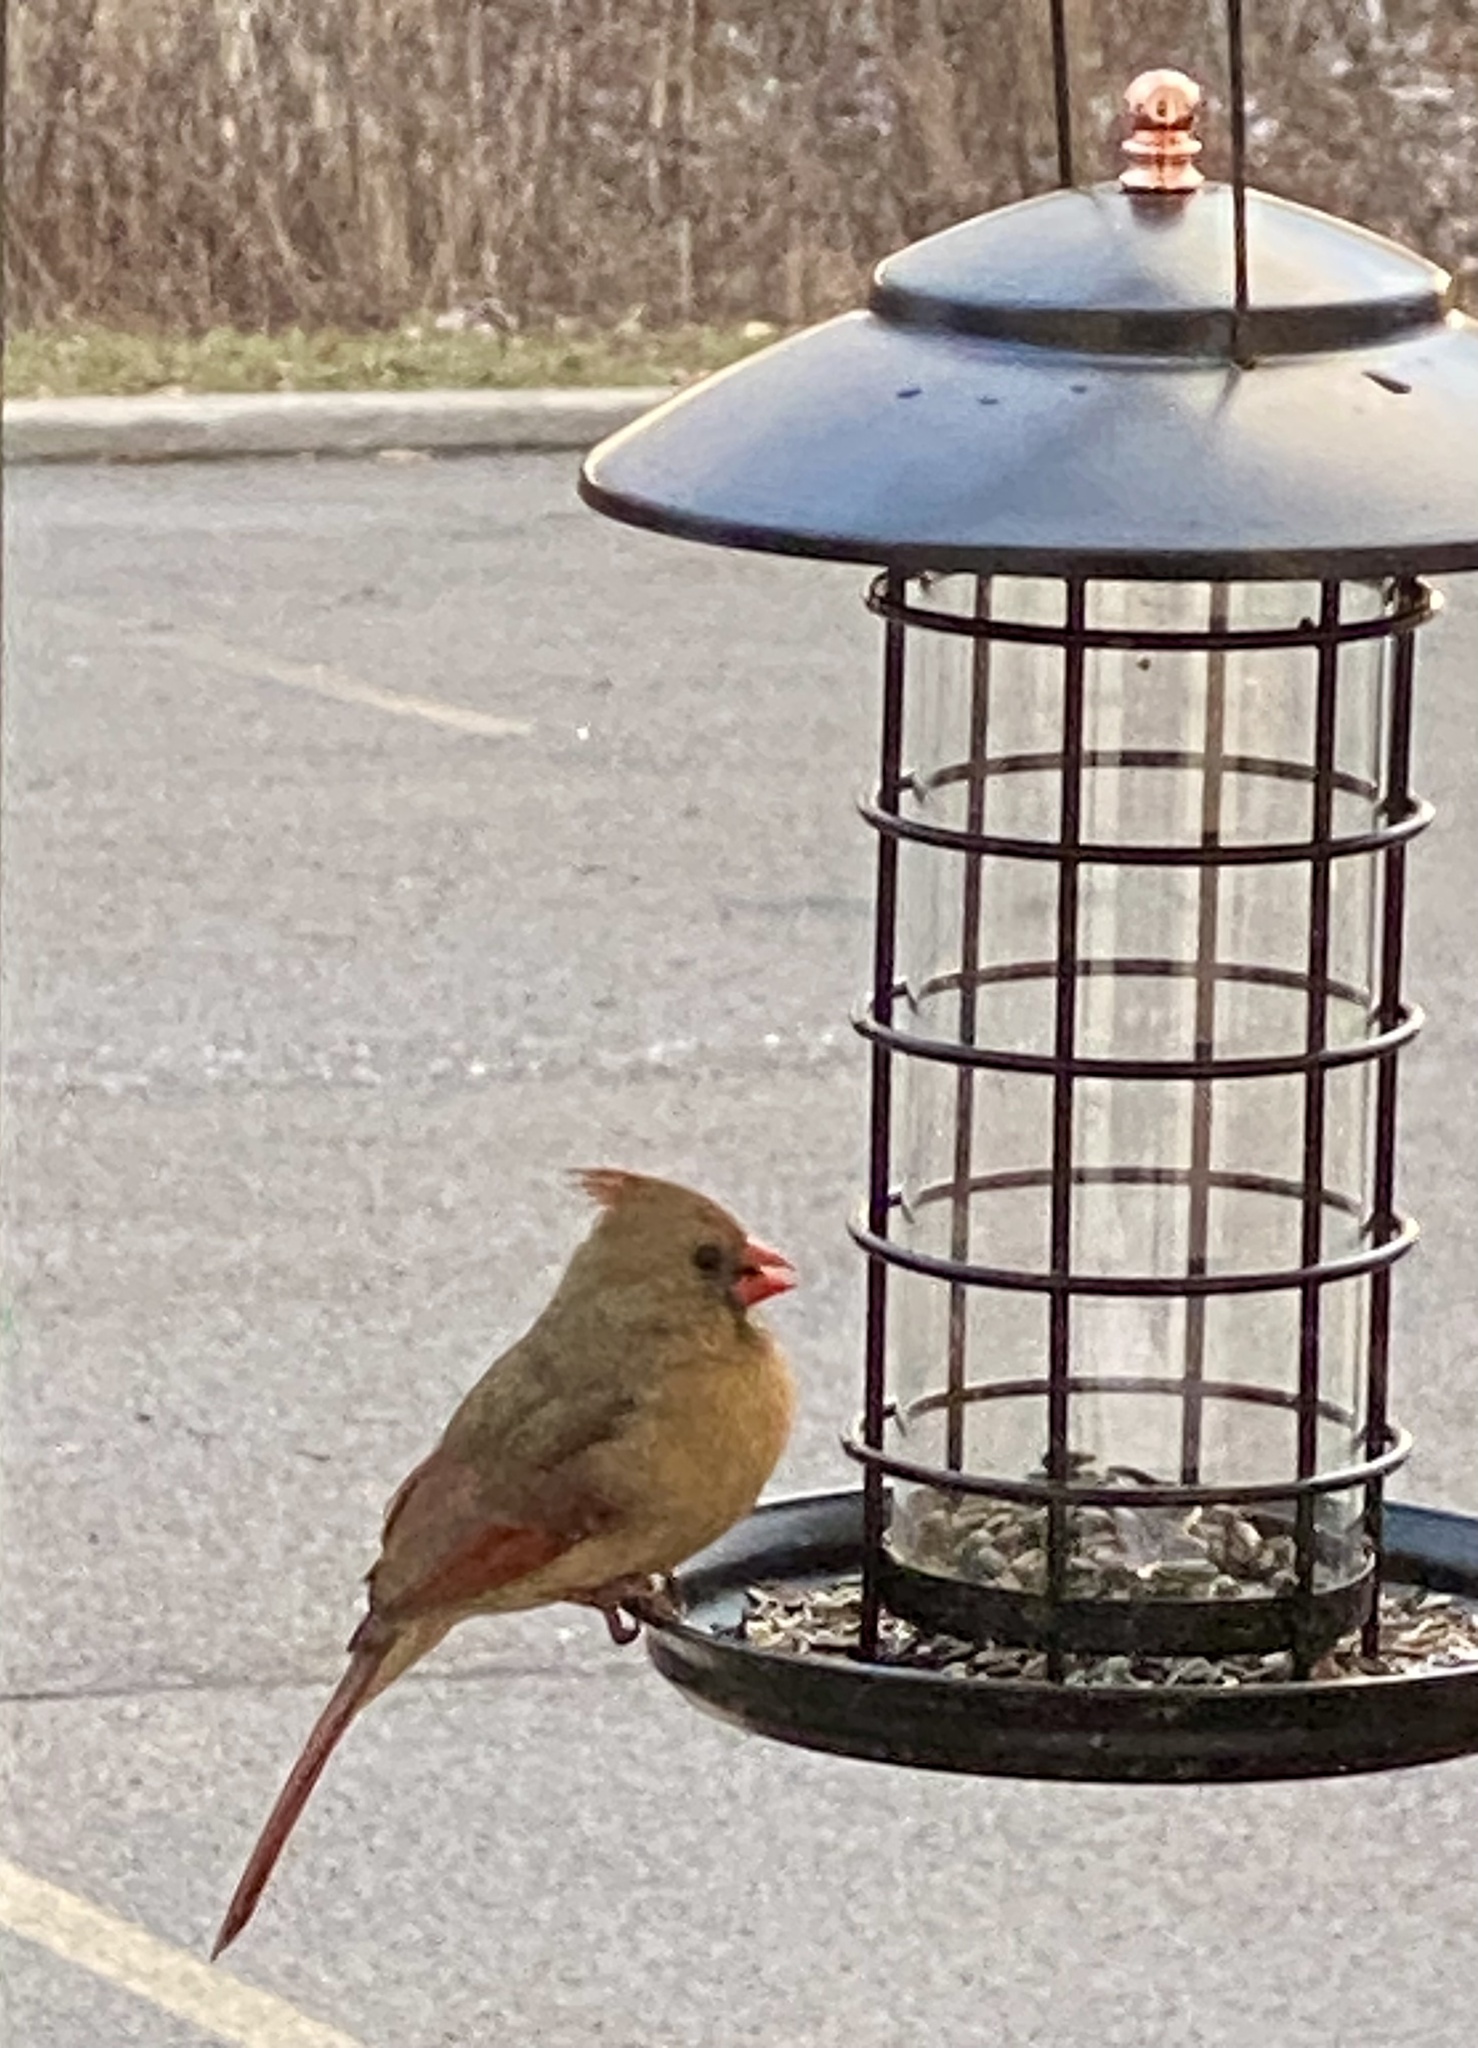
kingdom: Animalia
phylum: Chordata
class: Aves
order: Passeriformes
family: Cardinalidae
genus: Cardinalis
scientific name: Cardinalis cardinalis
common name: Northern cardinal
